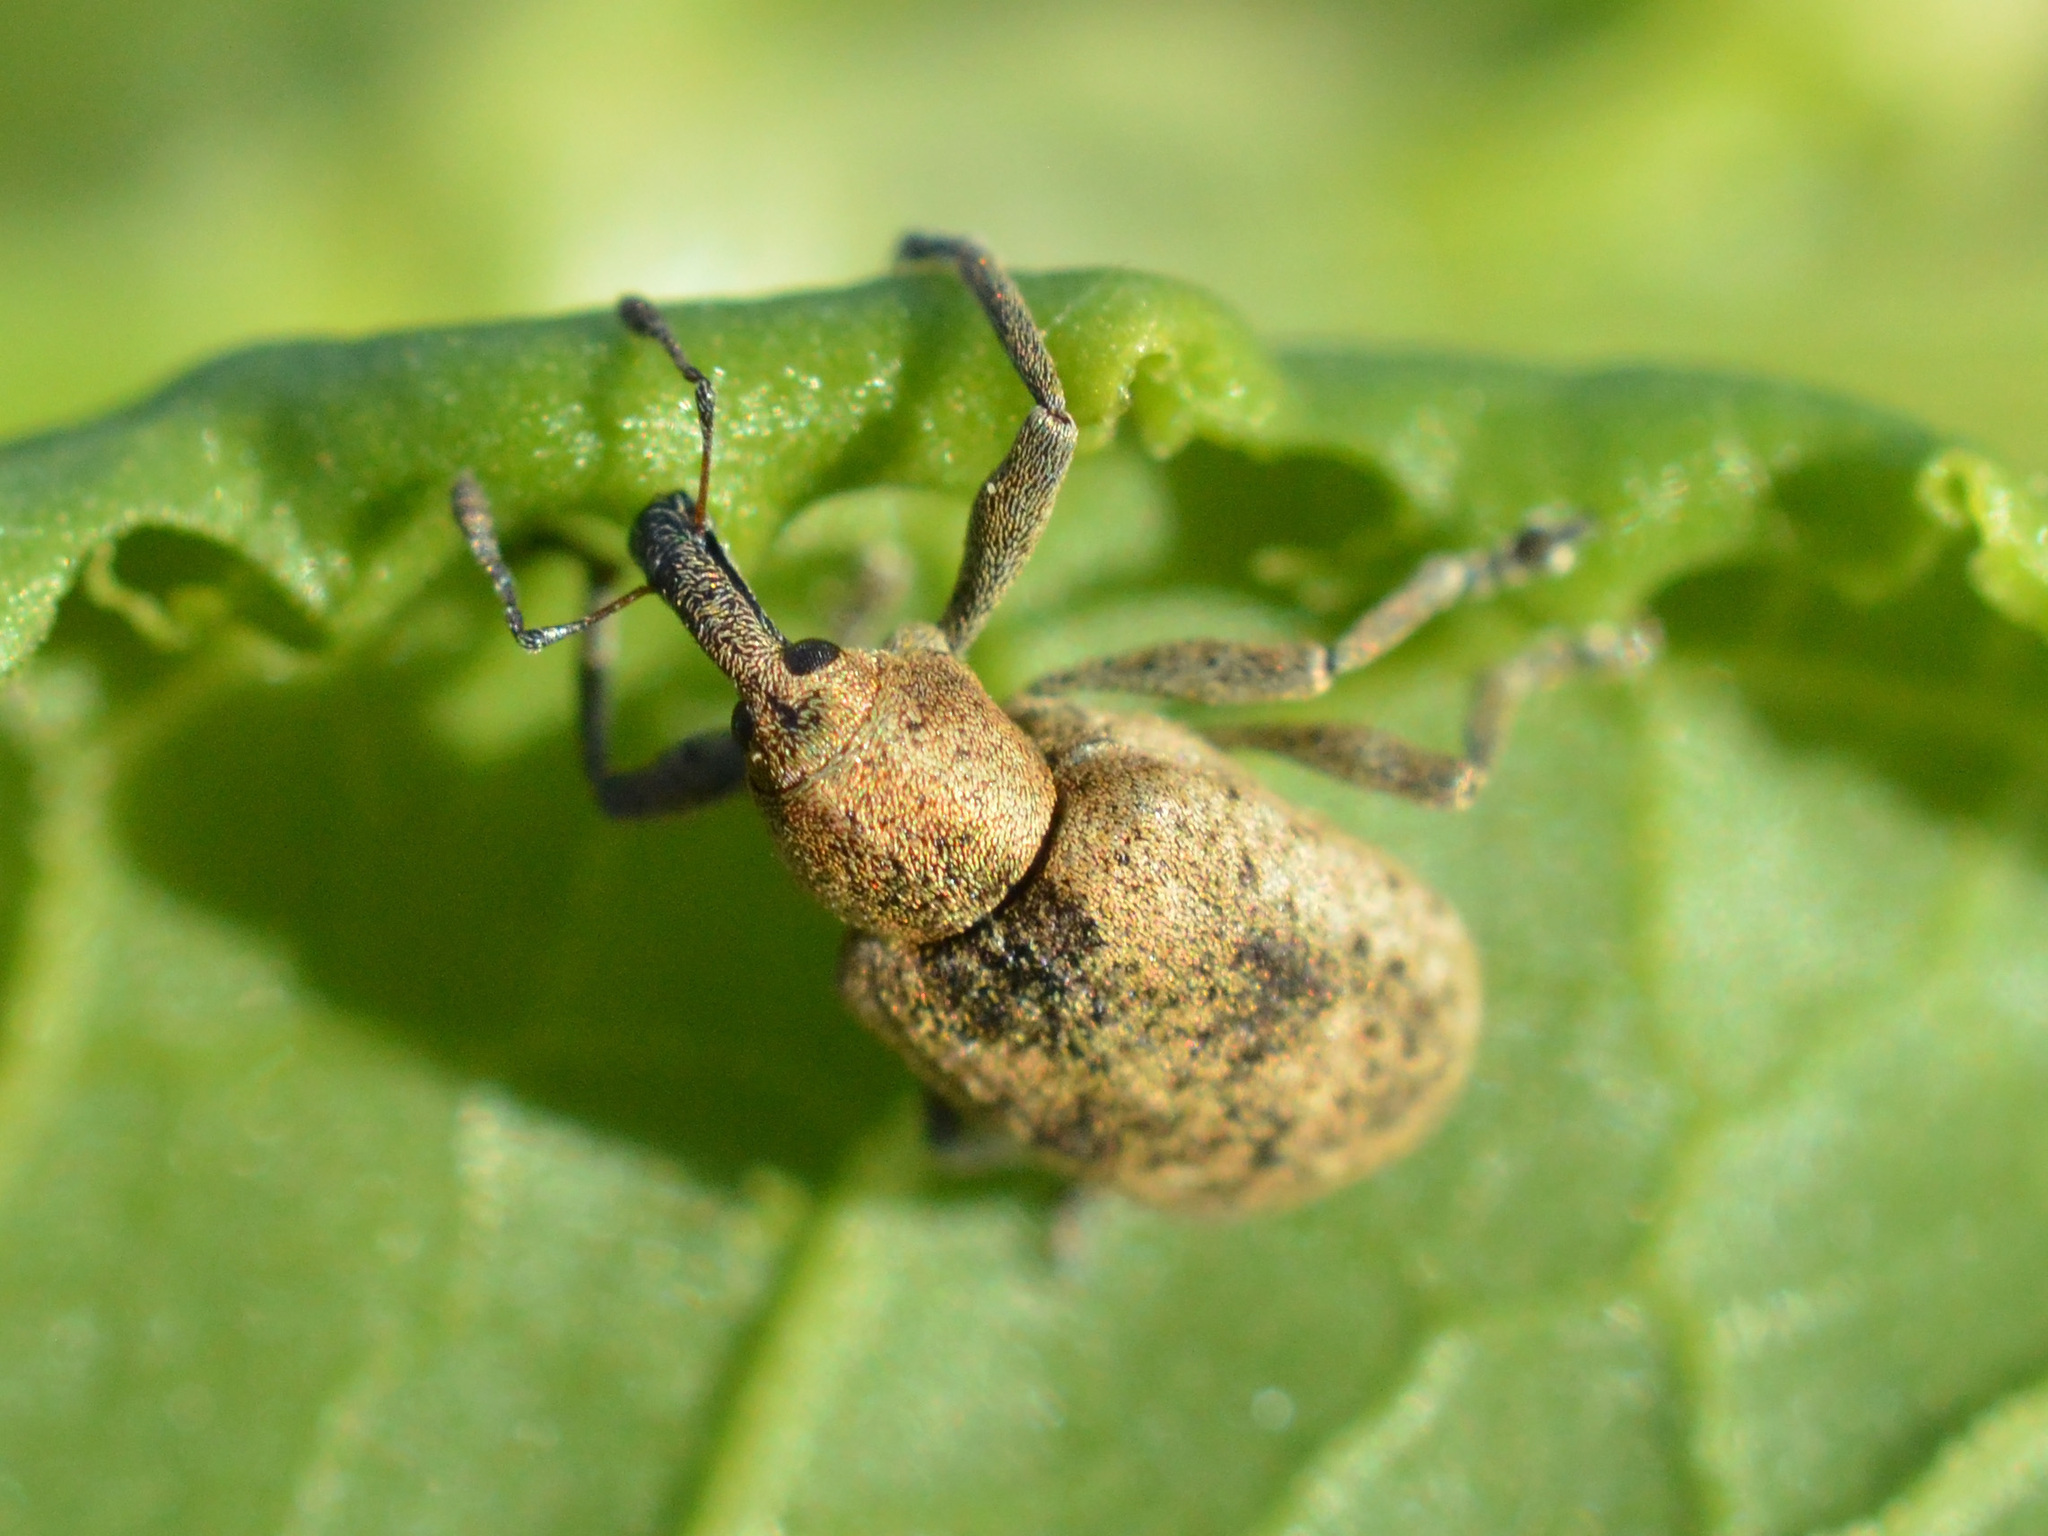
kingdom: Animalia
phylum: Arthropoda
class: Insecta
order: Coleoptera
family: Curculionidae
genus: Hypera
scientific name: Hypera rumicis
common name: Weevil
